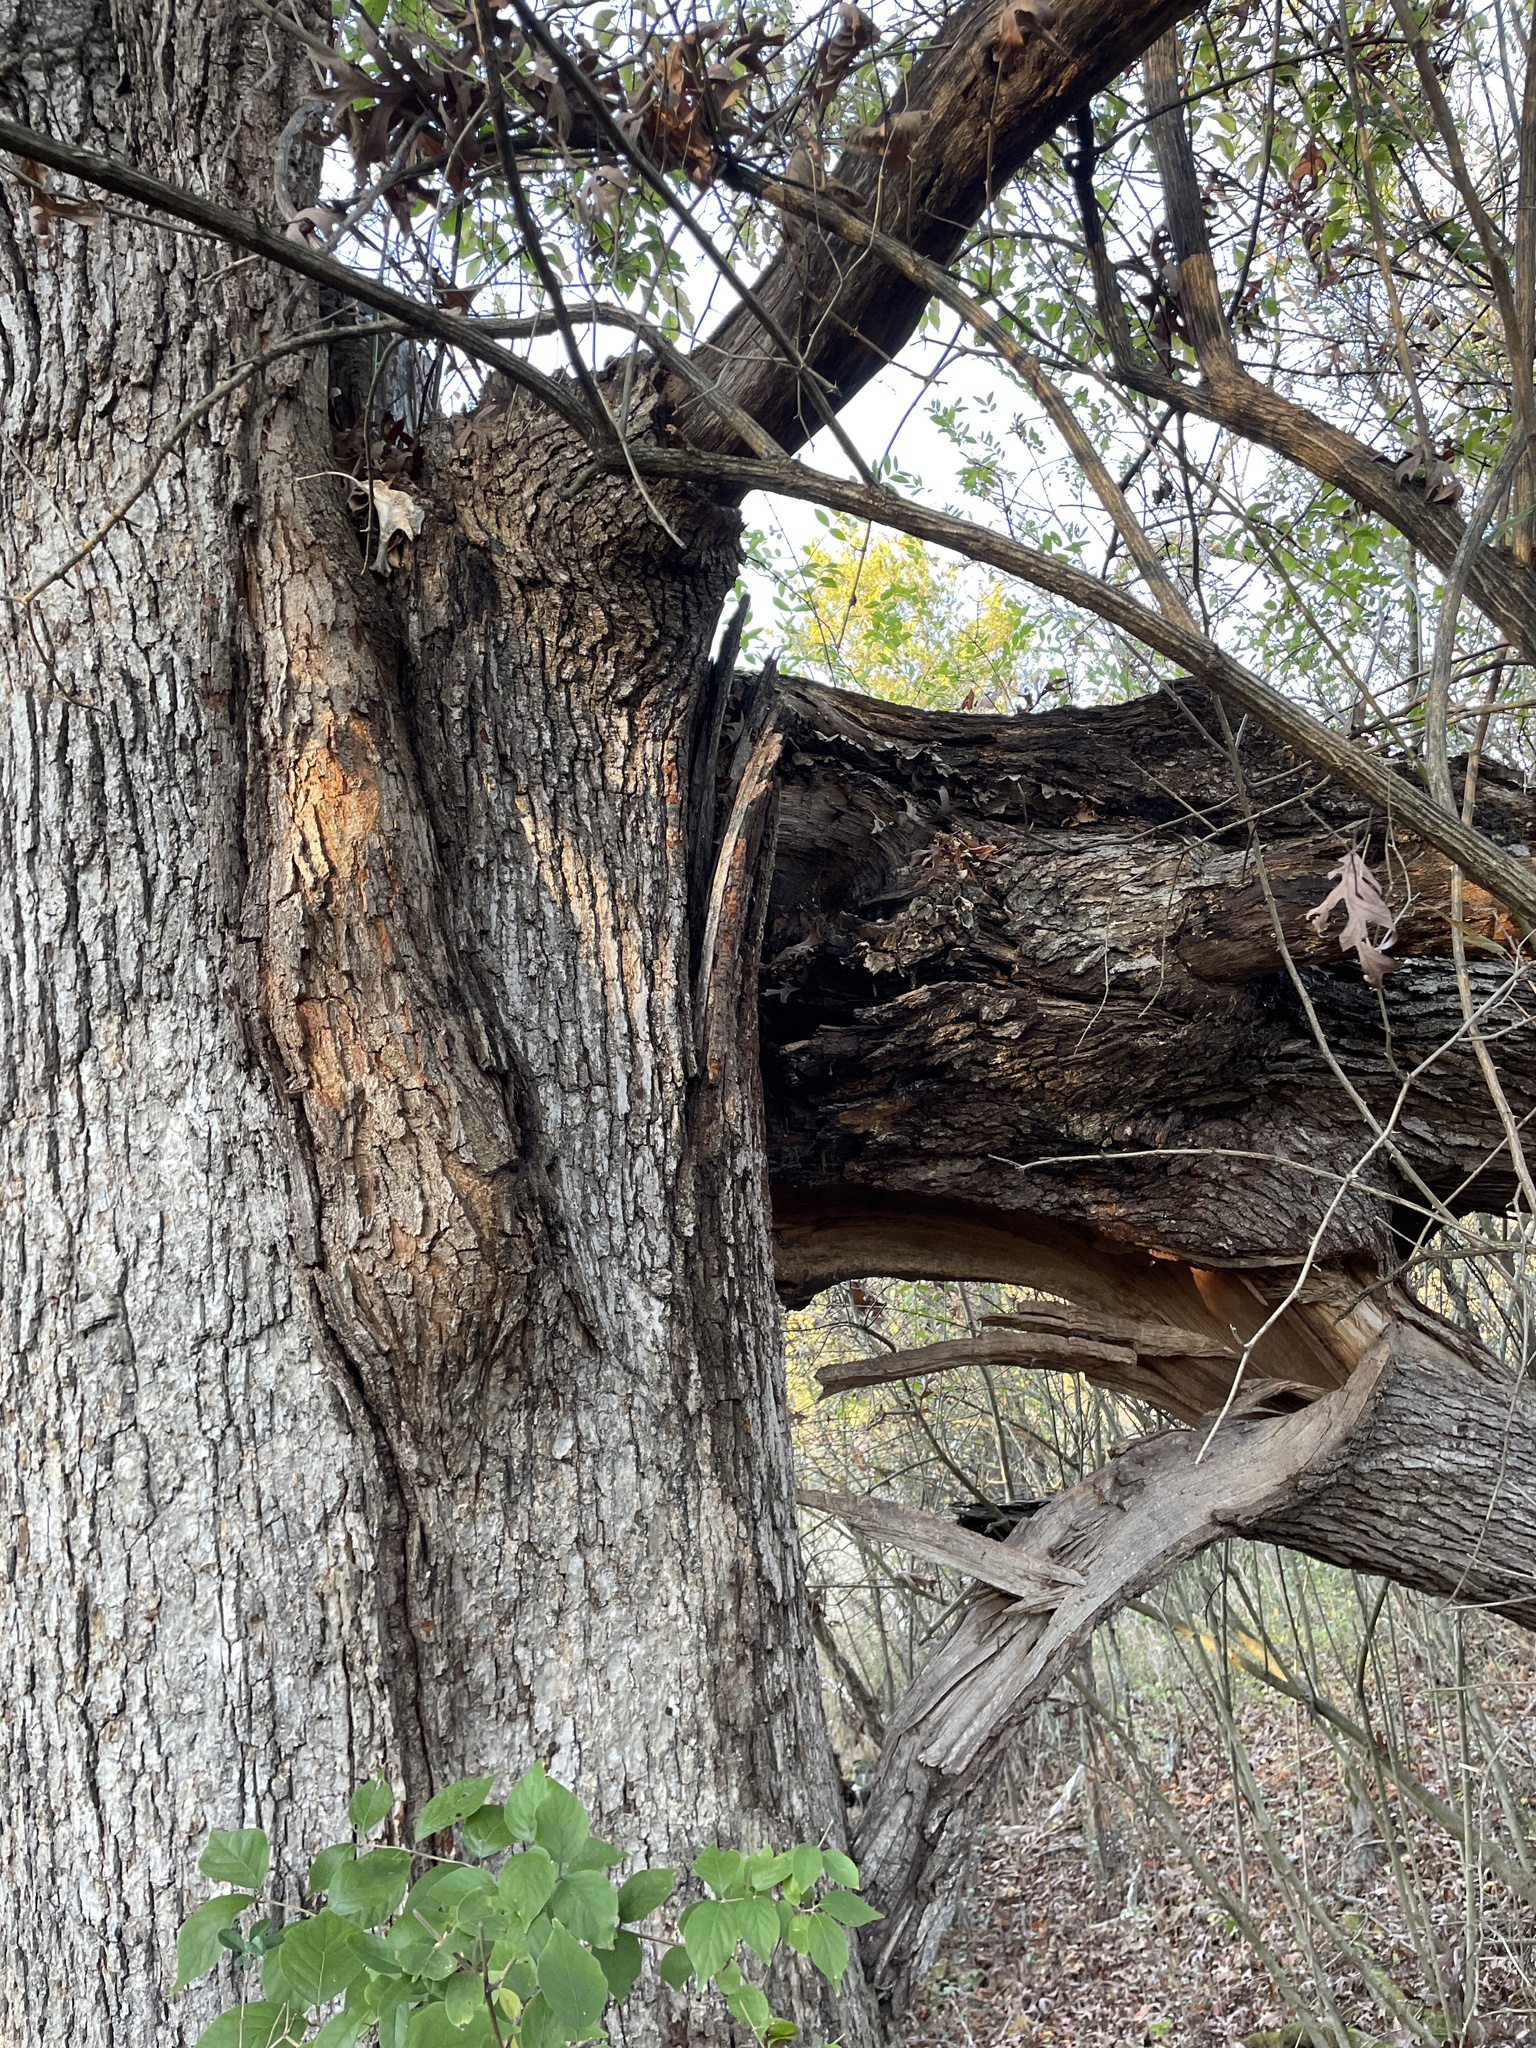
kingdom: Plantae
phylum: Tracheophyta
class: Magnoliopsida
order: Fagales
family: Fagaceae
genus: Quercus
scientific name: Quercus alba
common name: White oak
